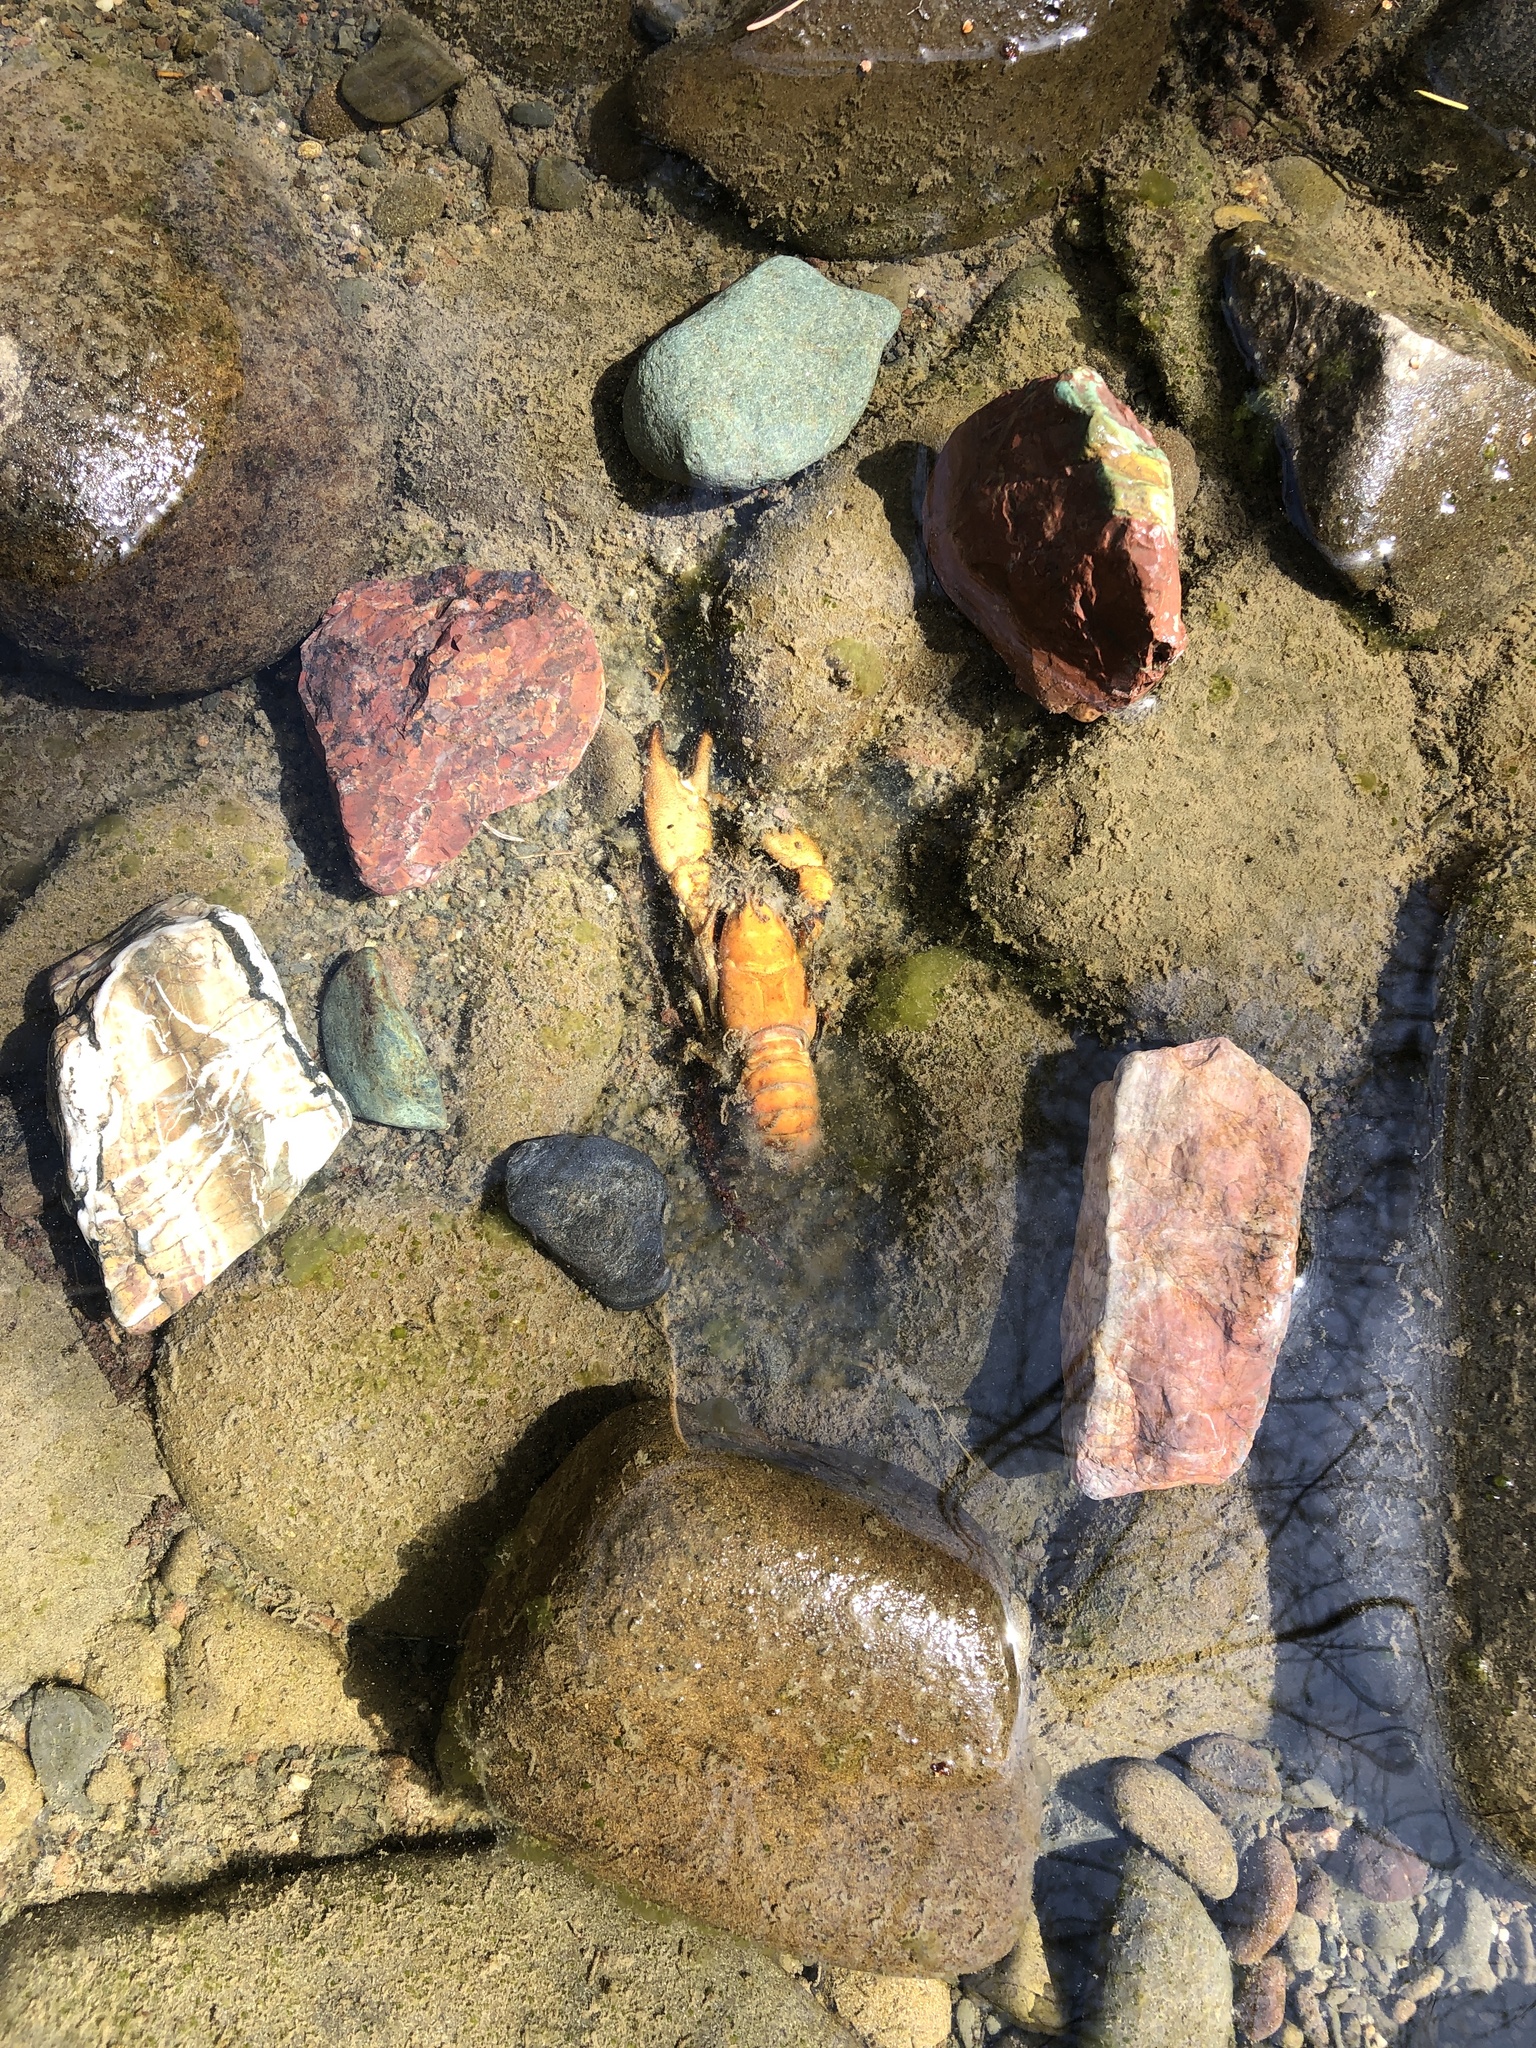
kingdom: Animalia
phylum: Arthropoda
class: Malacostraca
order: Decapoda
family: Astacidae
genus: Pacifastacus
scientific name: Pacifastacus leniusculus
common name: Signal crayfish
